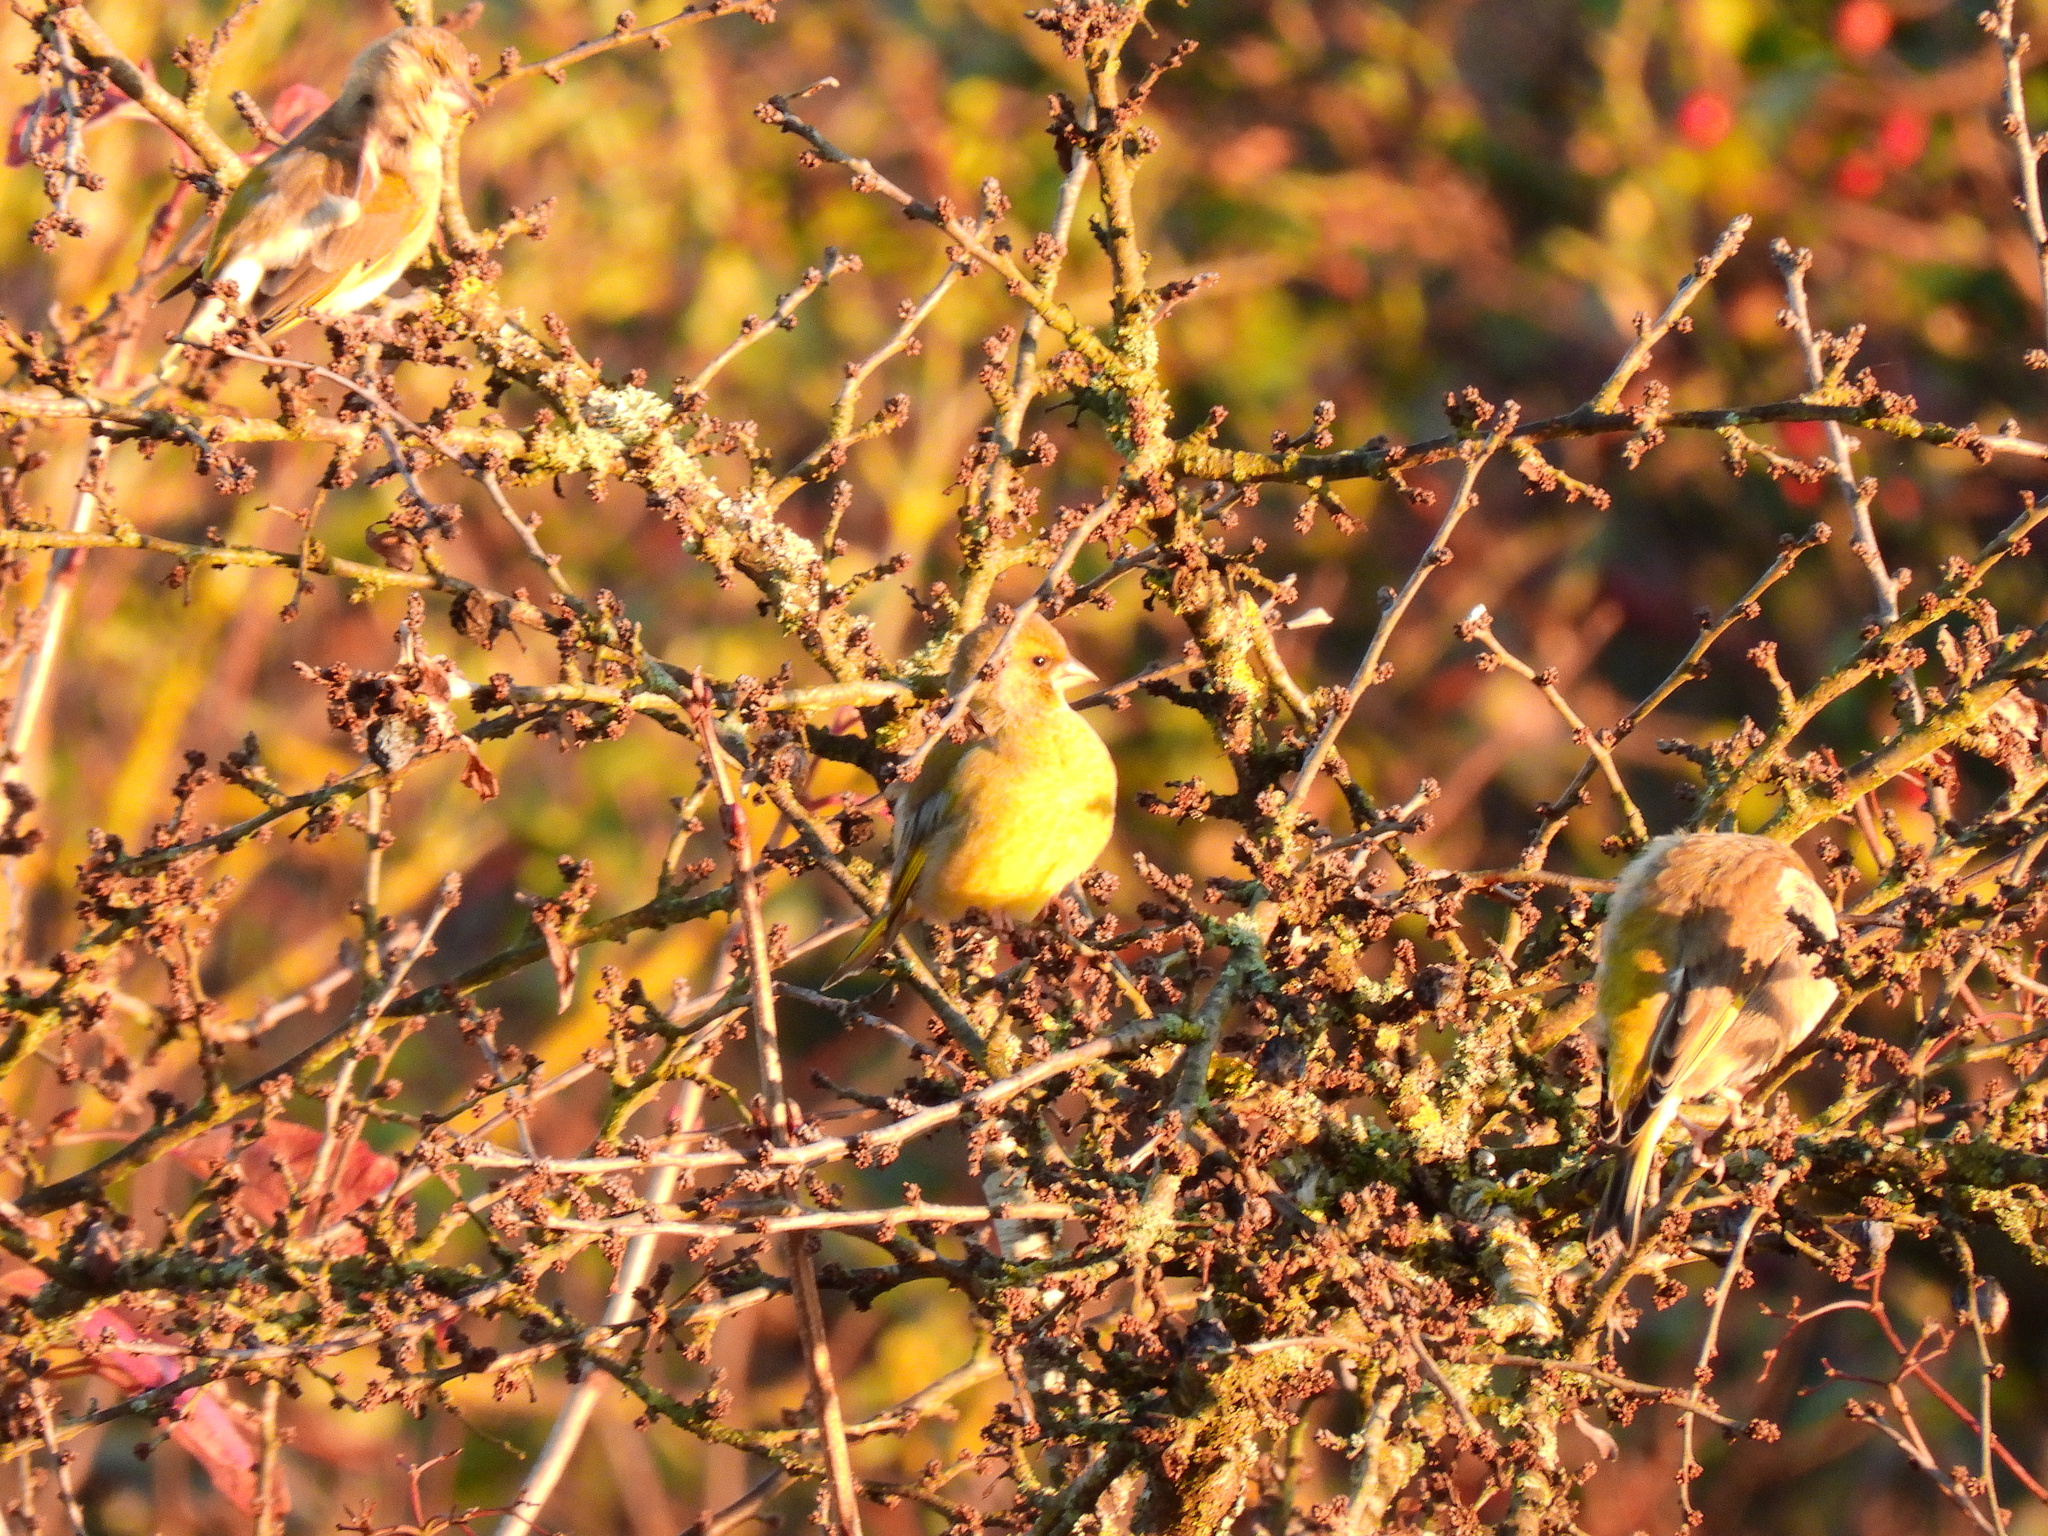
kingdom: Plantae
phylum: Tracheophyta
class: Liliopsida
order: Poales
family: Poaceae
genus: Chloris
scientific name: Chloris chloris
